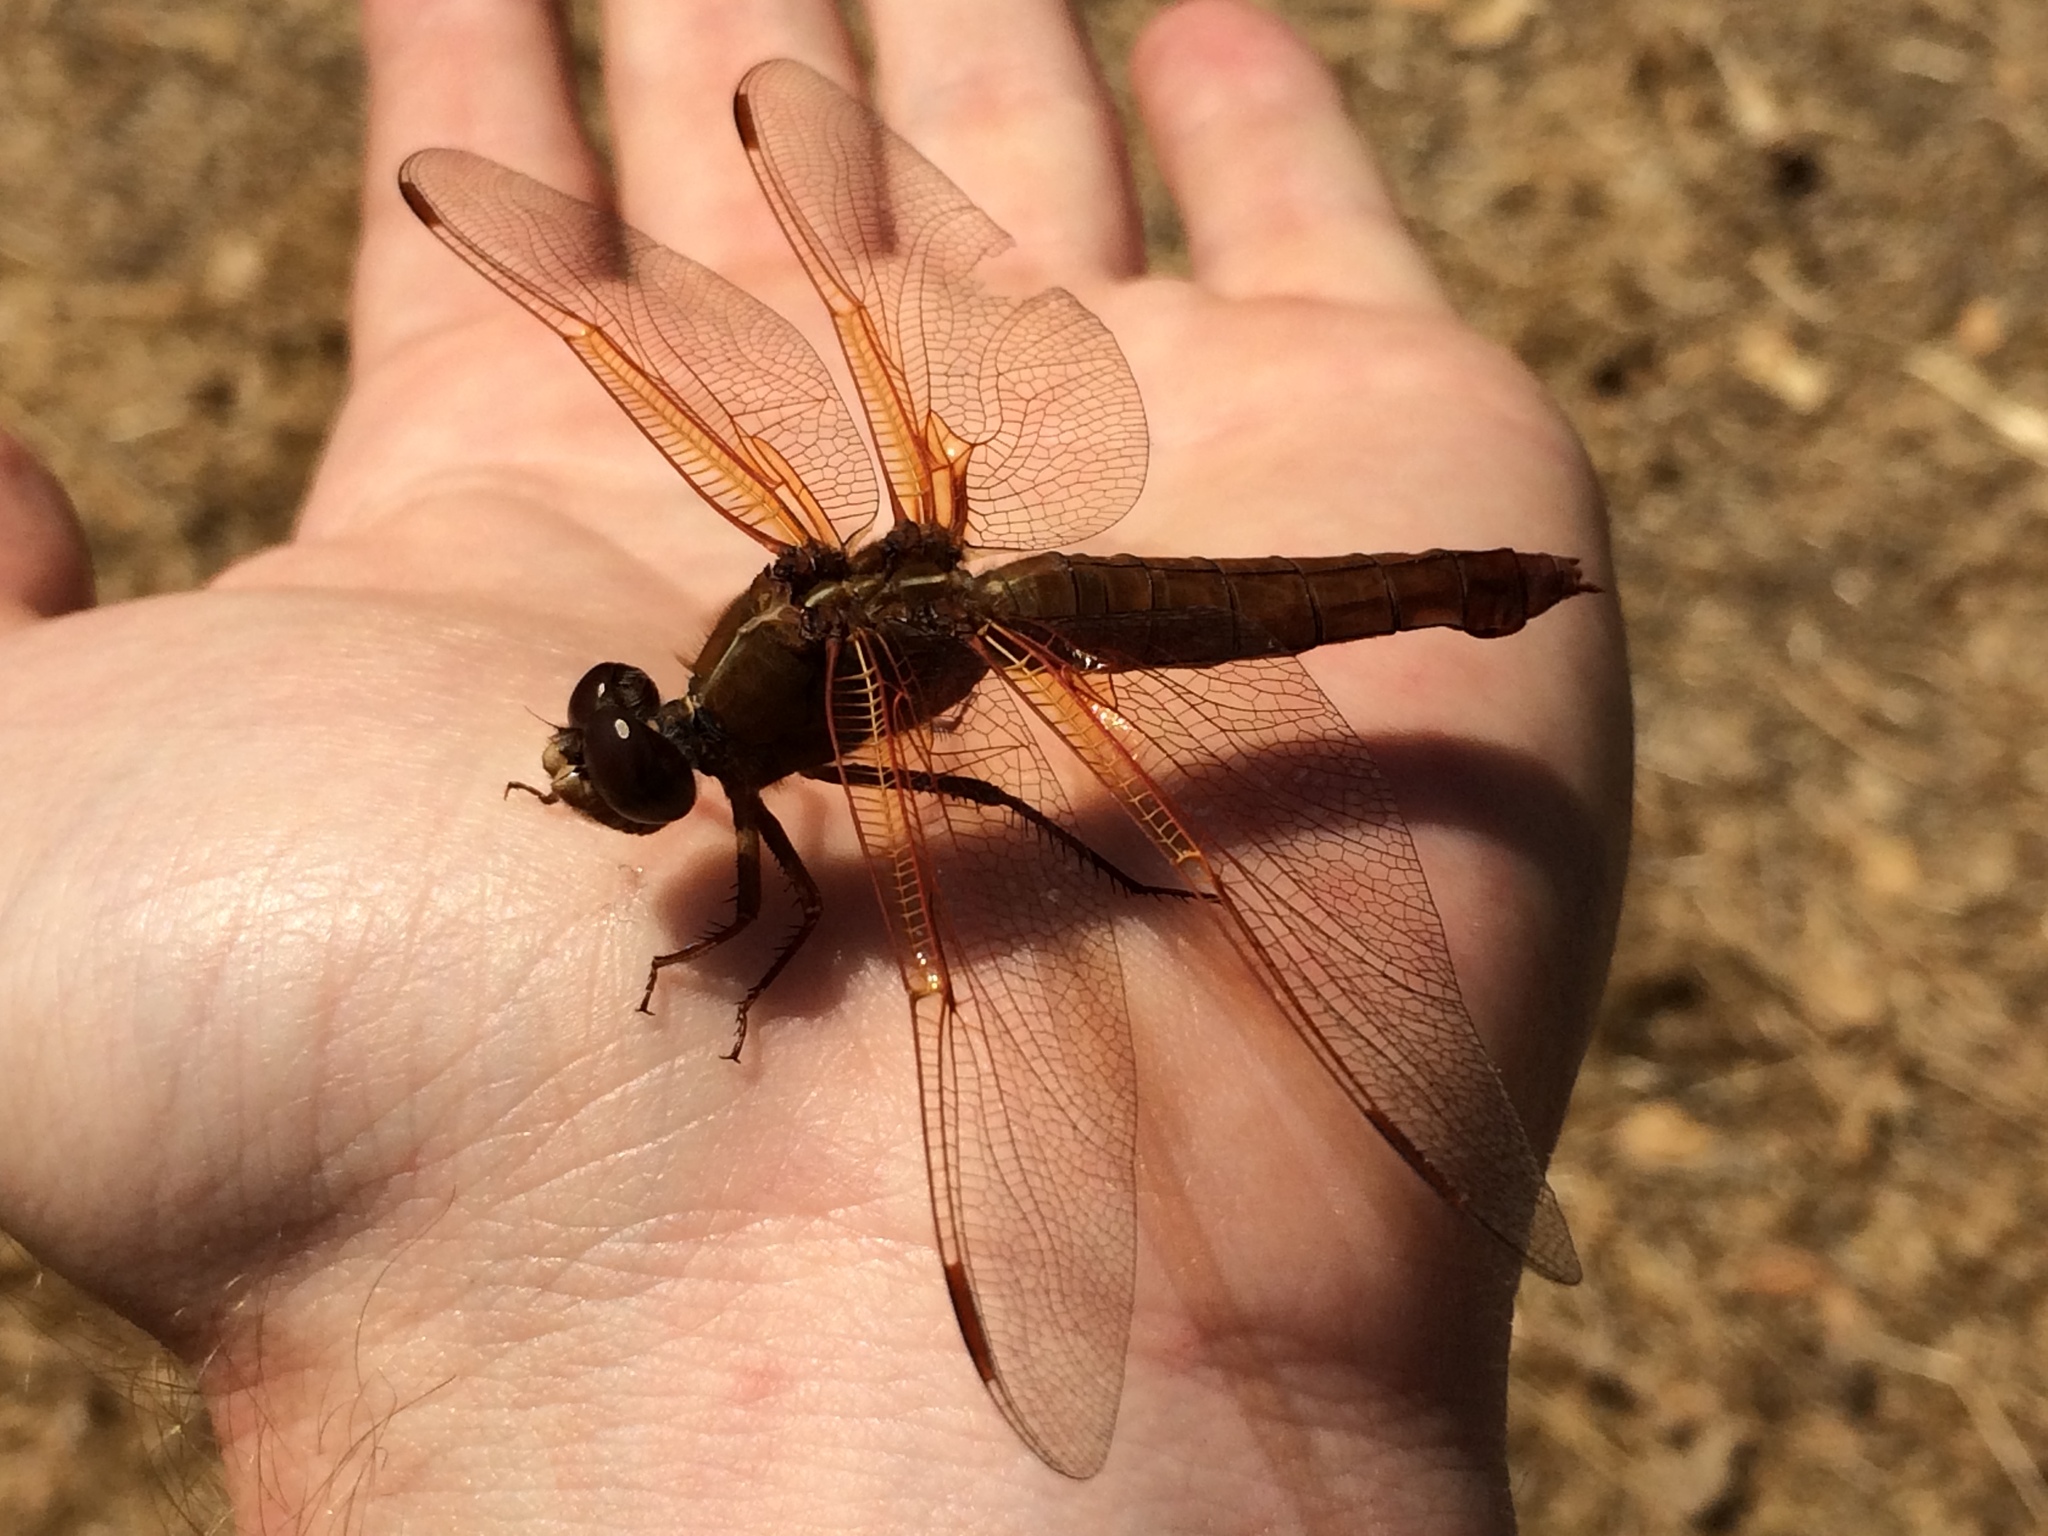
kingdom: Animalia
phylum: Arthropoda
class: Insecta
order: Odonata
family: Libellulidae
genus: Libellula
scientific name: Libellula saturata
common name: Flame skimmer
